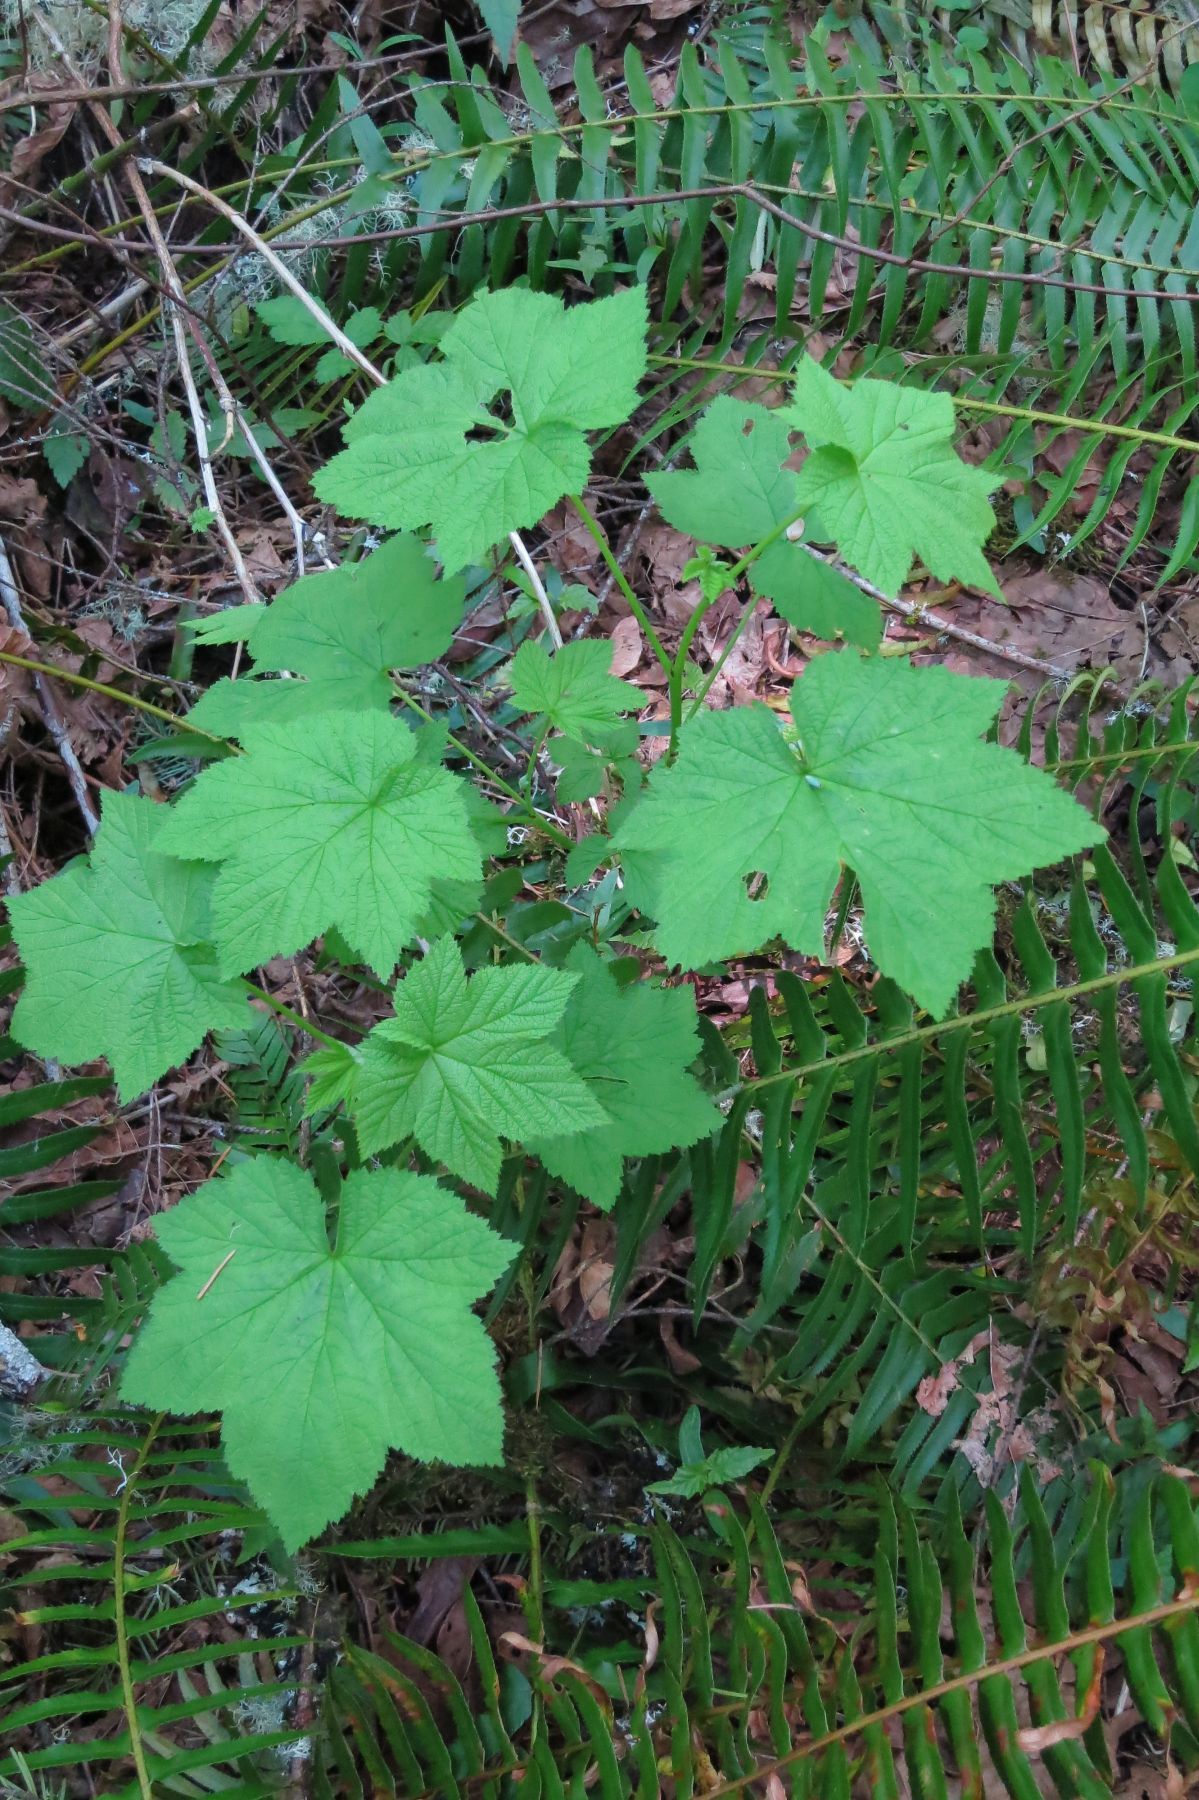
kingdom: Plantae
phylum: Tracheophyta
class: Magnoliopsida
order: Rosales
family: Rosaceae
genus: Rubus
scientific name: Rubus parviflorus
